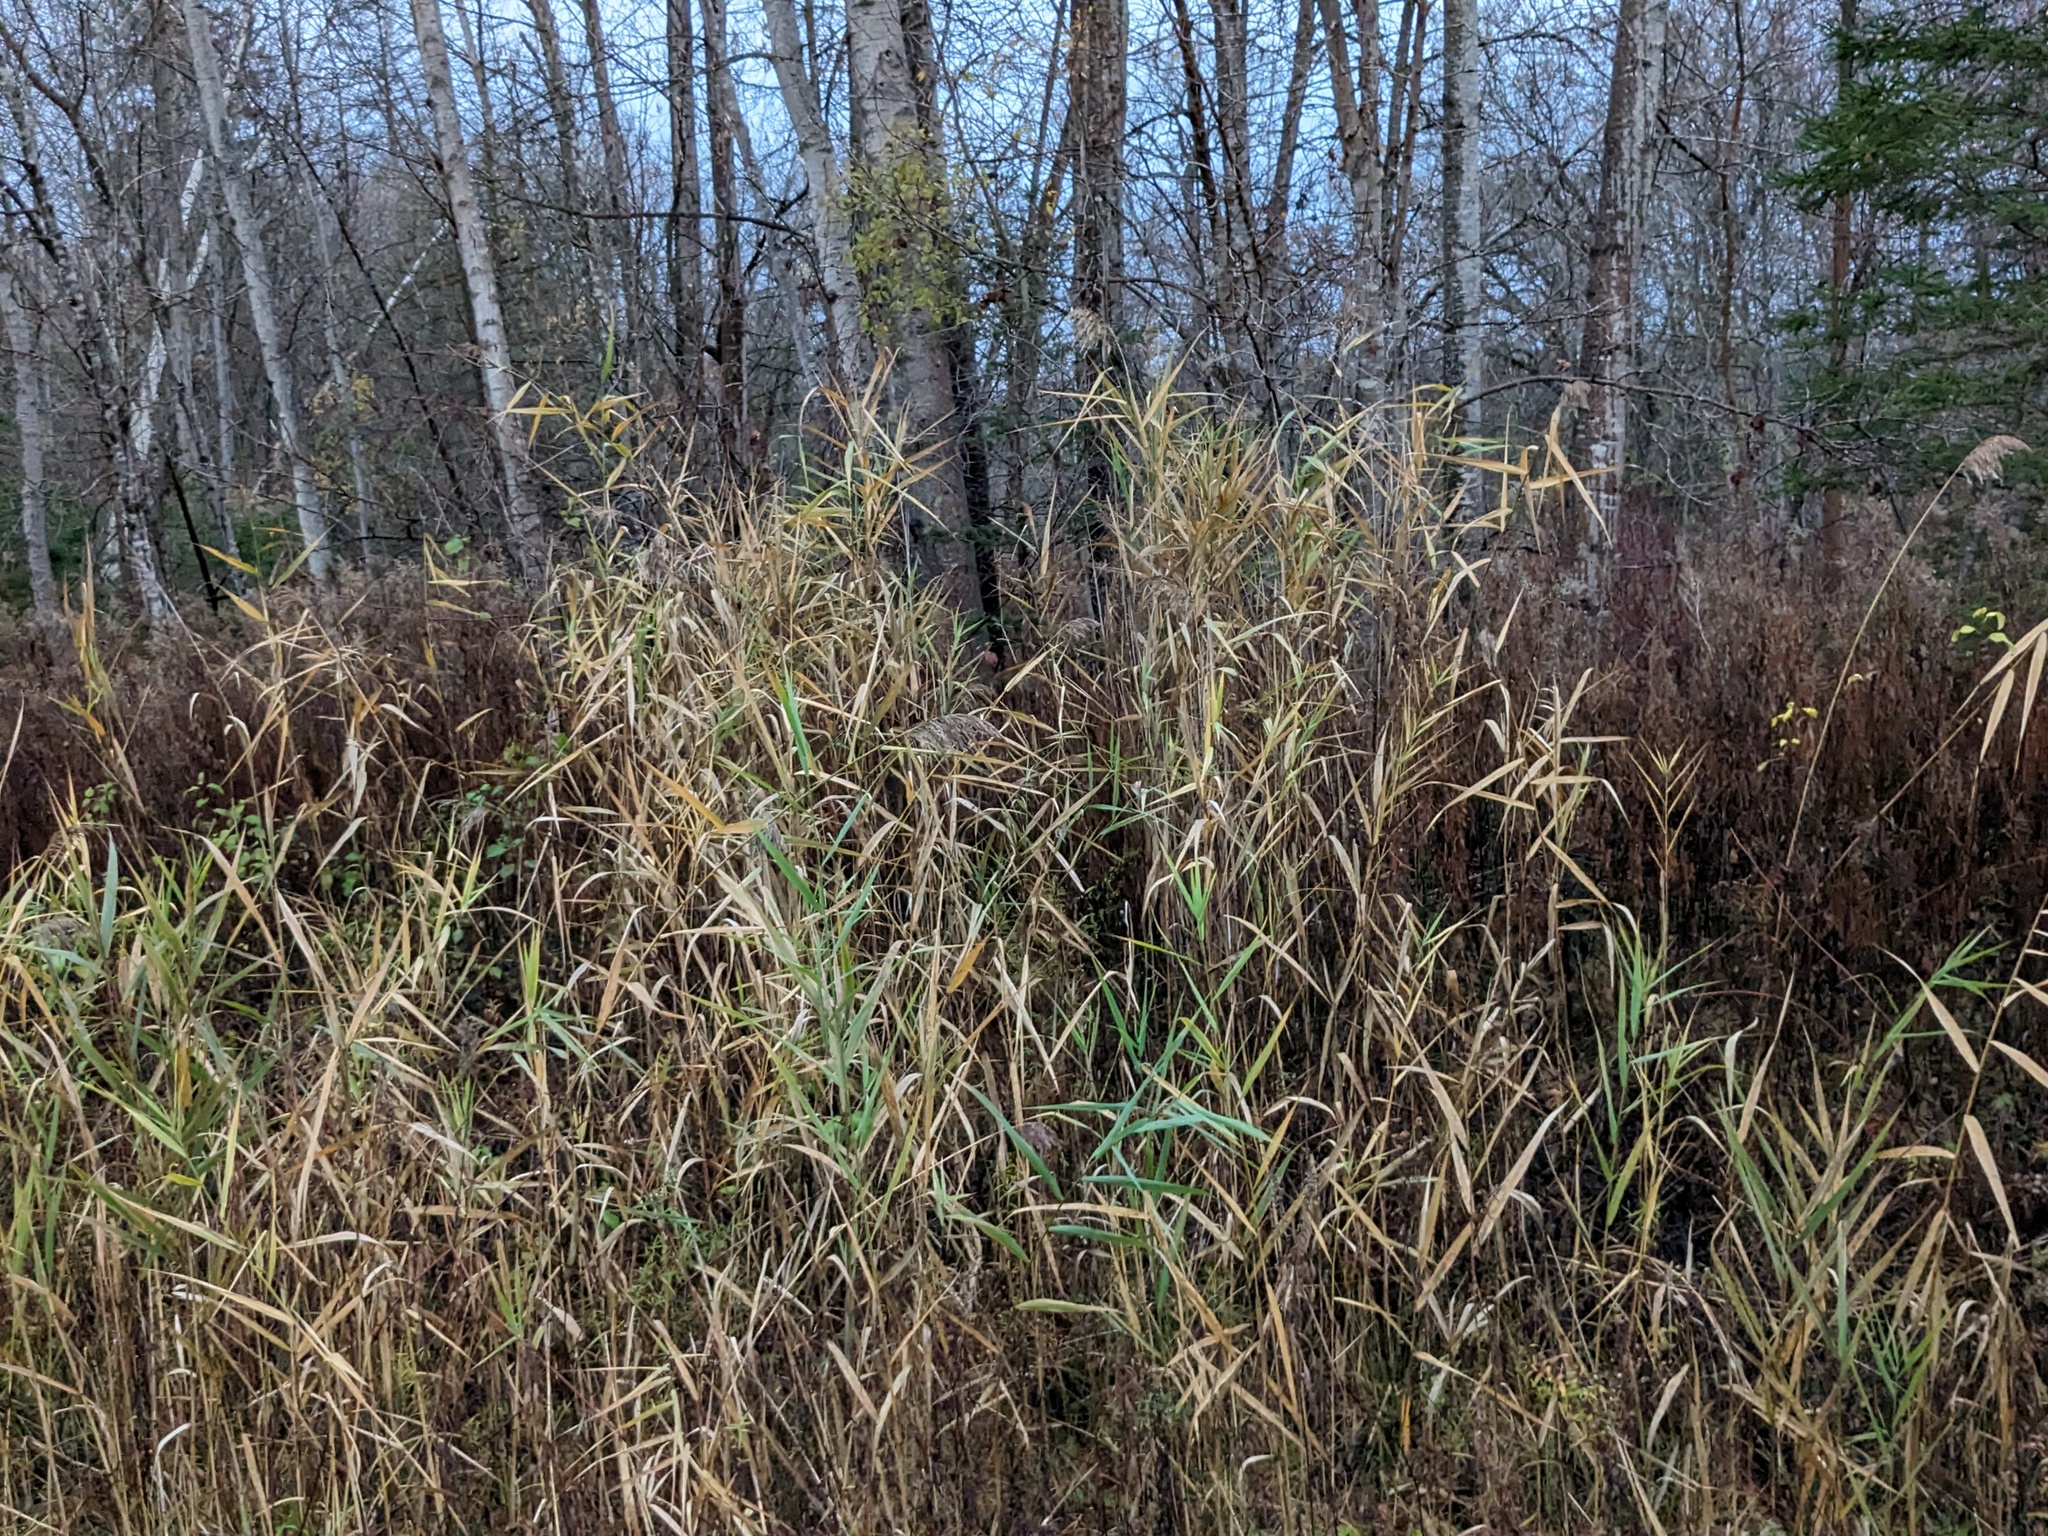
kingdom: Plantae
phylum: Tracheophyta
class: Liliopsida
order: Poales
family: Poaceae
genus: Phragmites
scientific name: Phragmites australis
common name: Common reed
